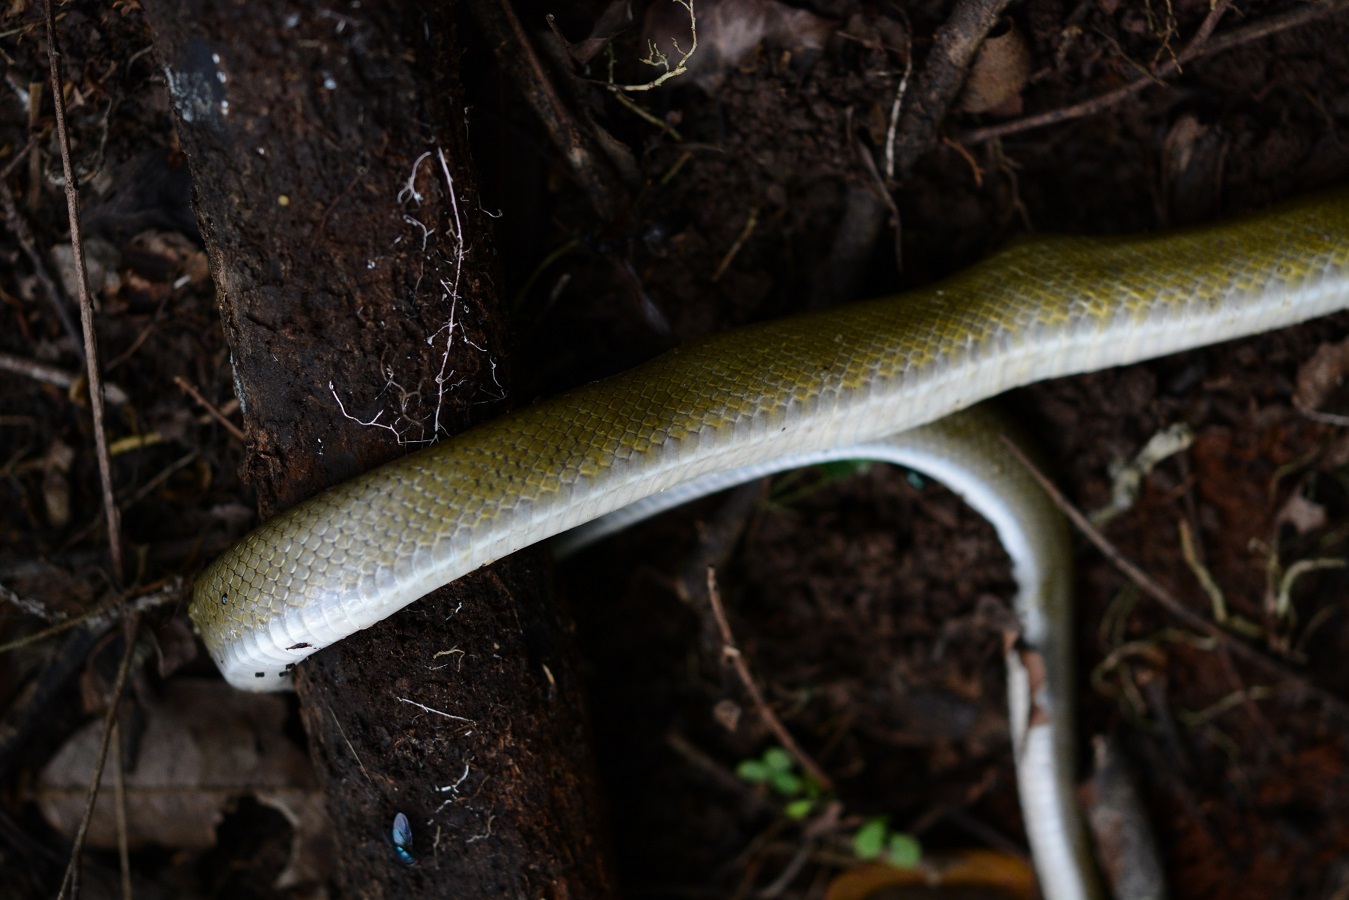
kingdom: Animalia
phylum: Chordata
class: Squamata
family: Colubridae
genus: Senticolis
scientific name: Senticolis triaspis
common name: Green rat snake
